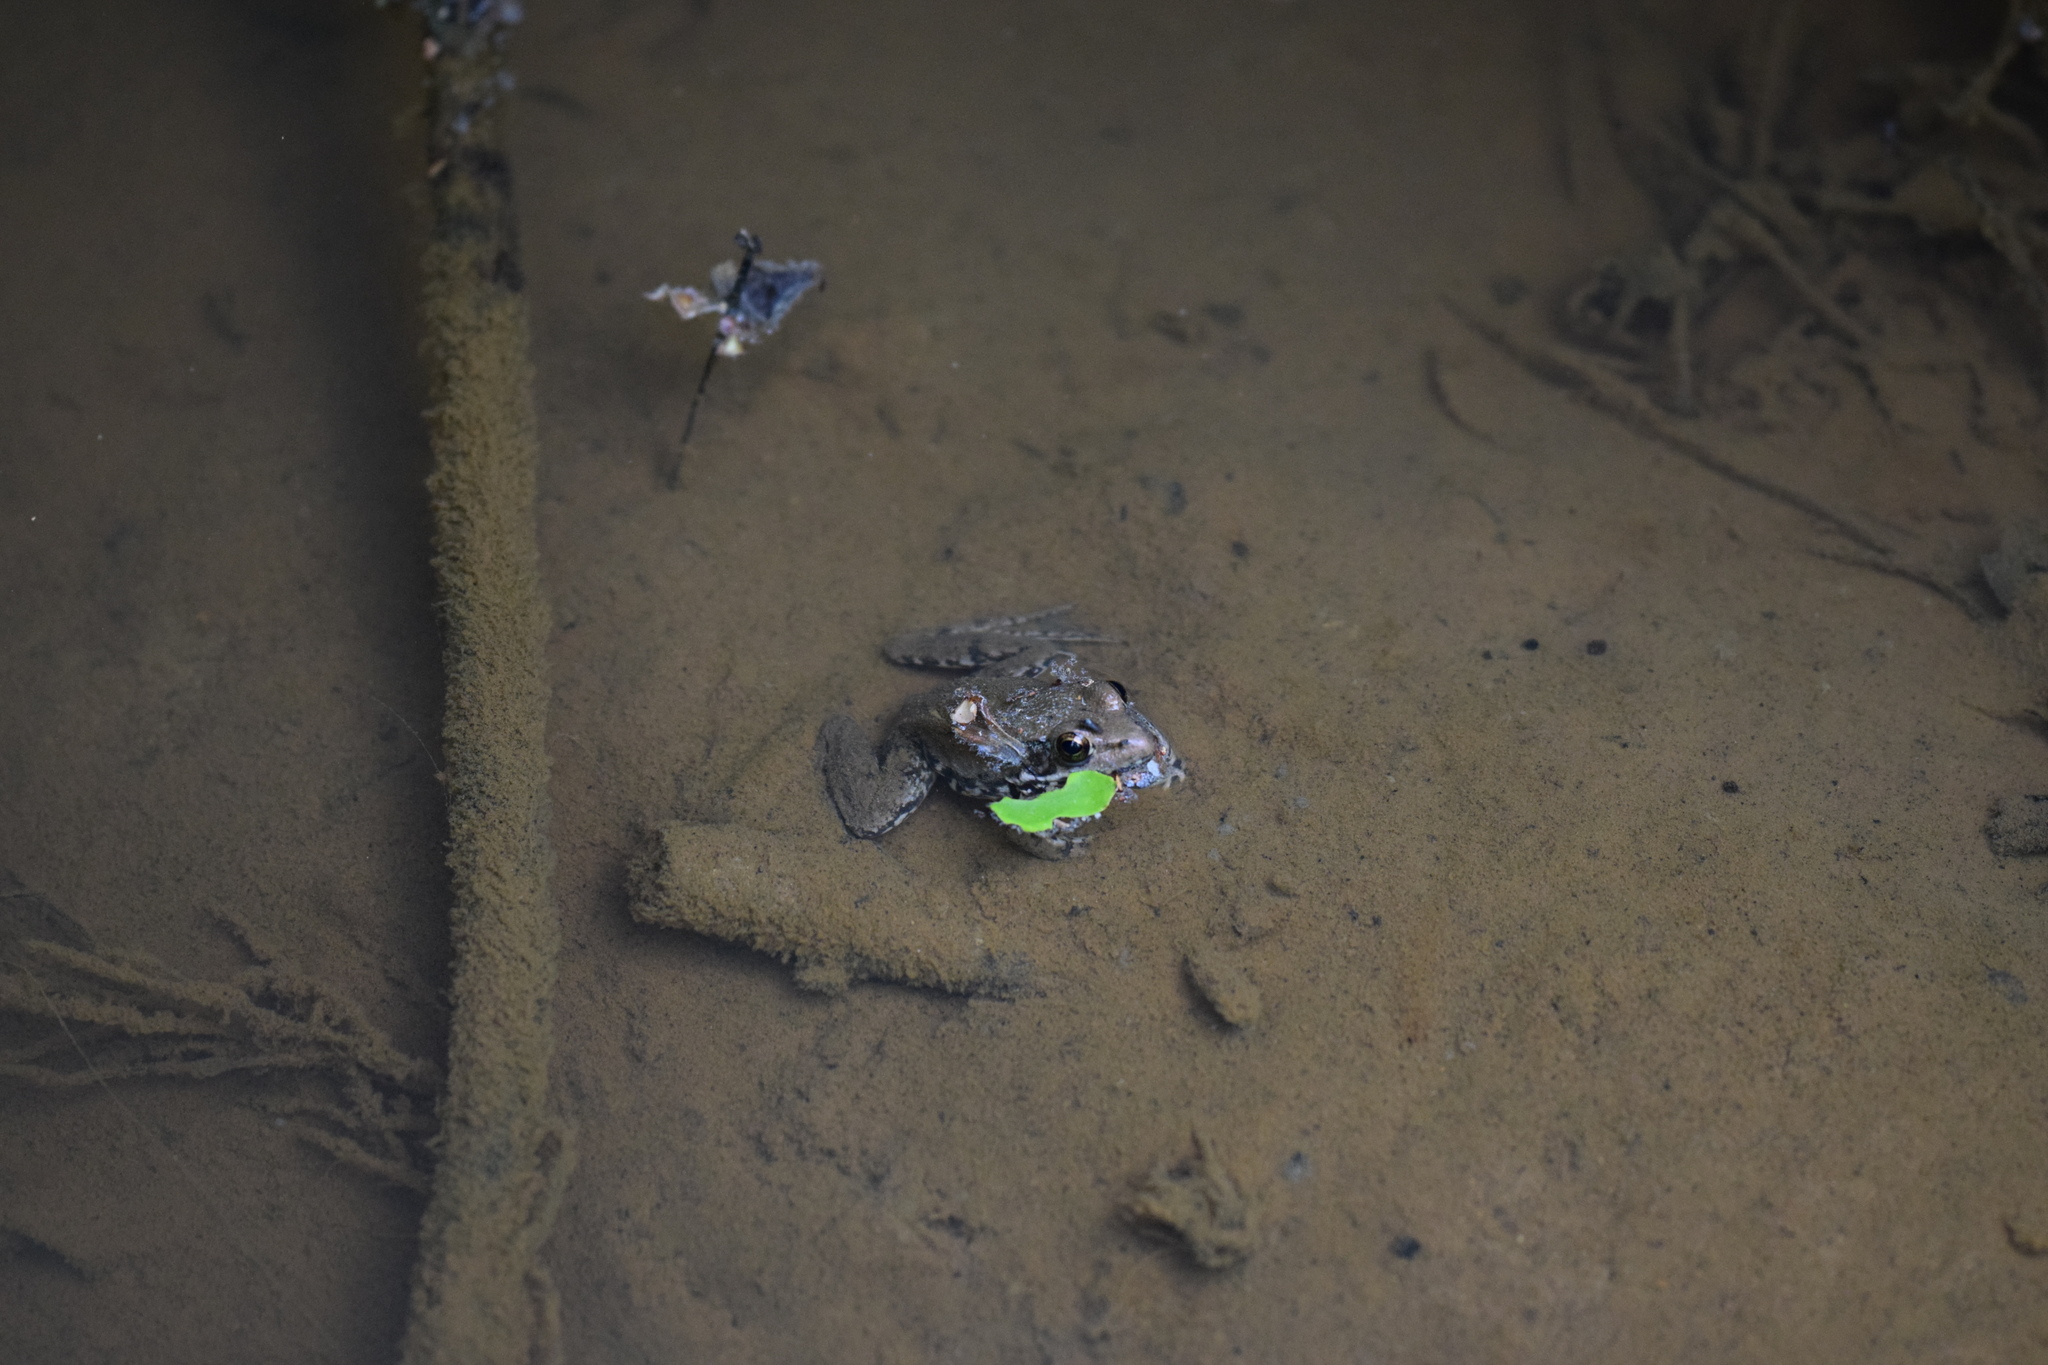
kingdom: Animalia
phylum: Chordata
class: Amphibia
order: Anura
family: Hylidae
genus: Acris
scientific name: Acris blanchardi
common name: Blanchard's cricket frog
